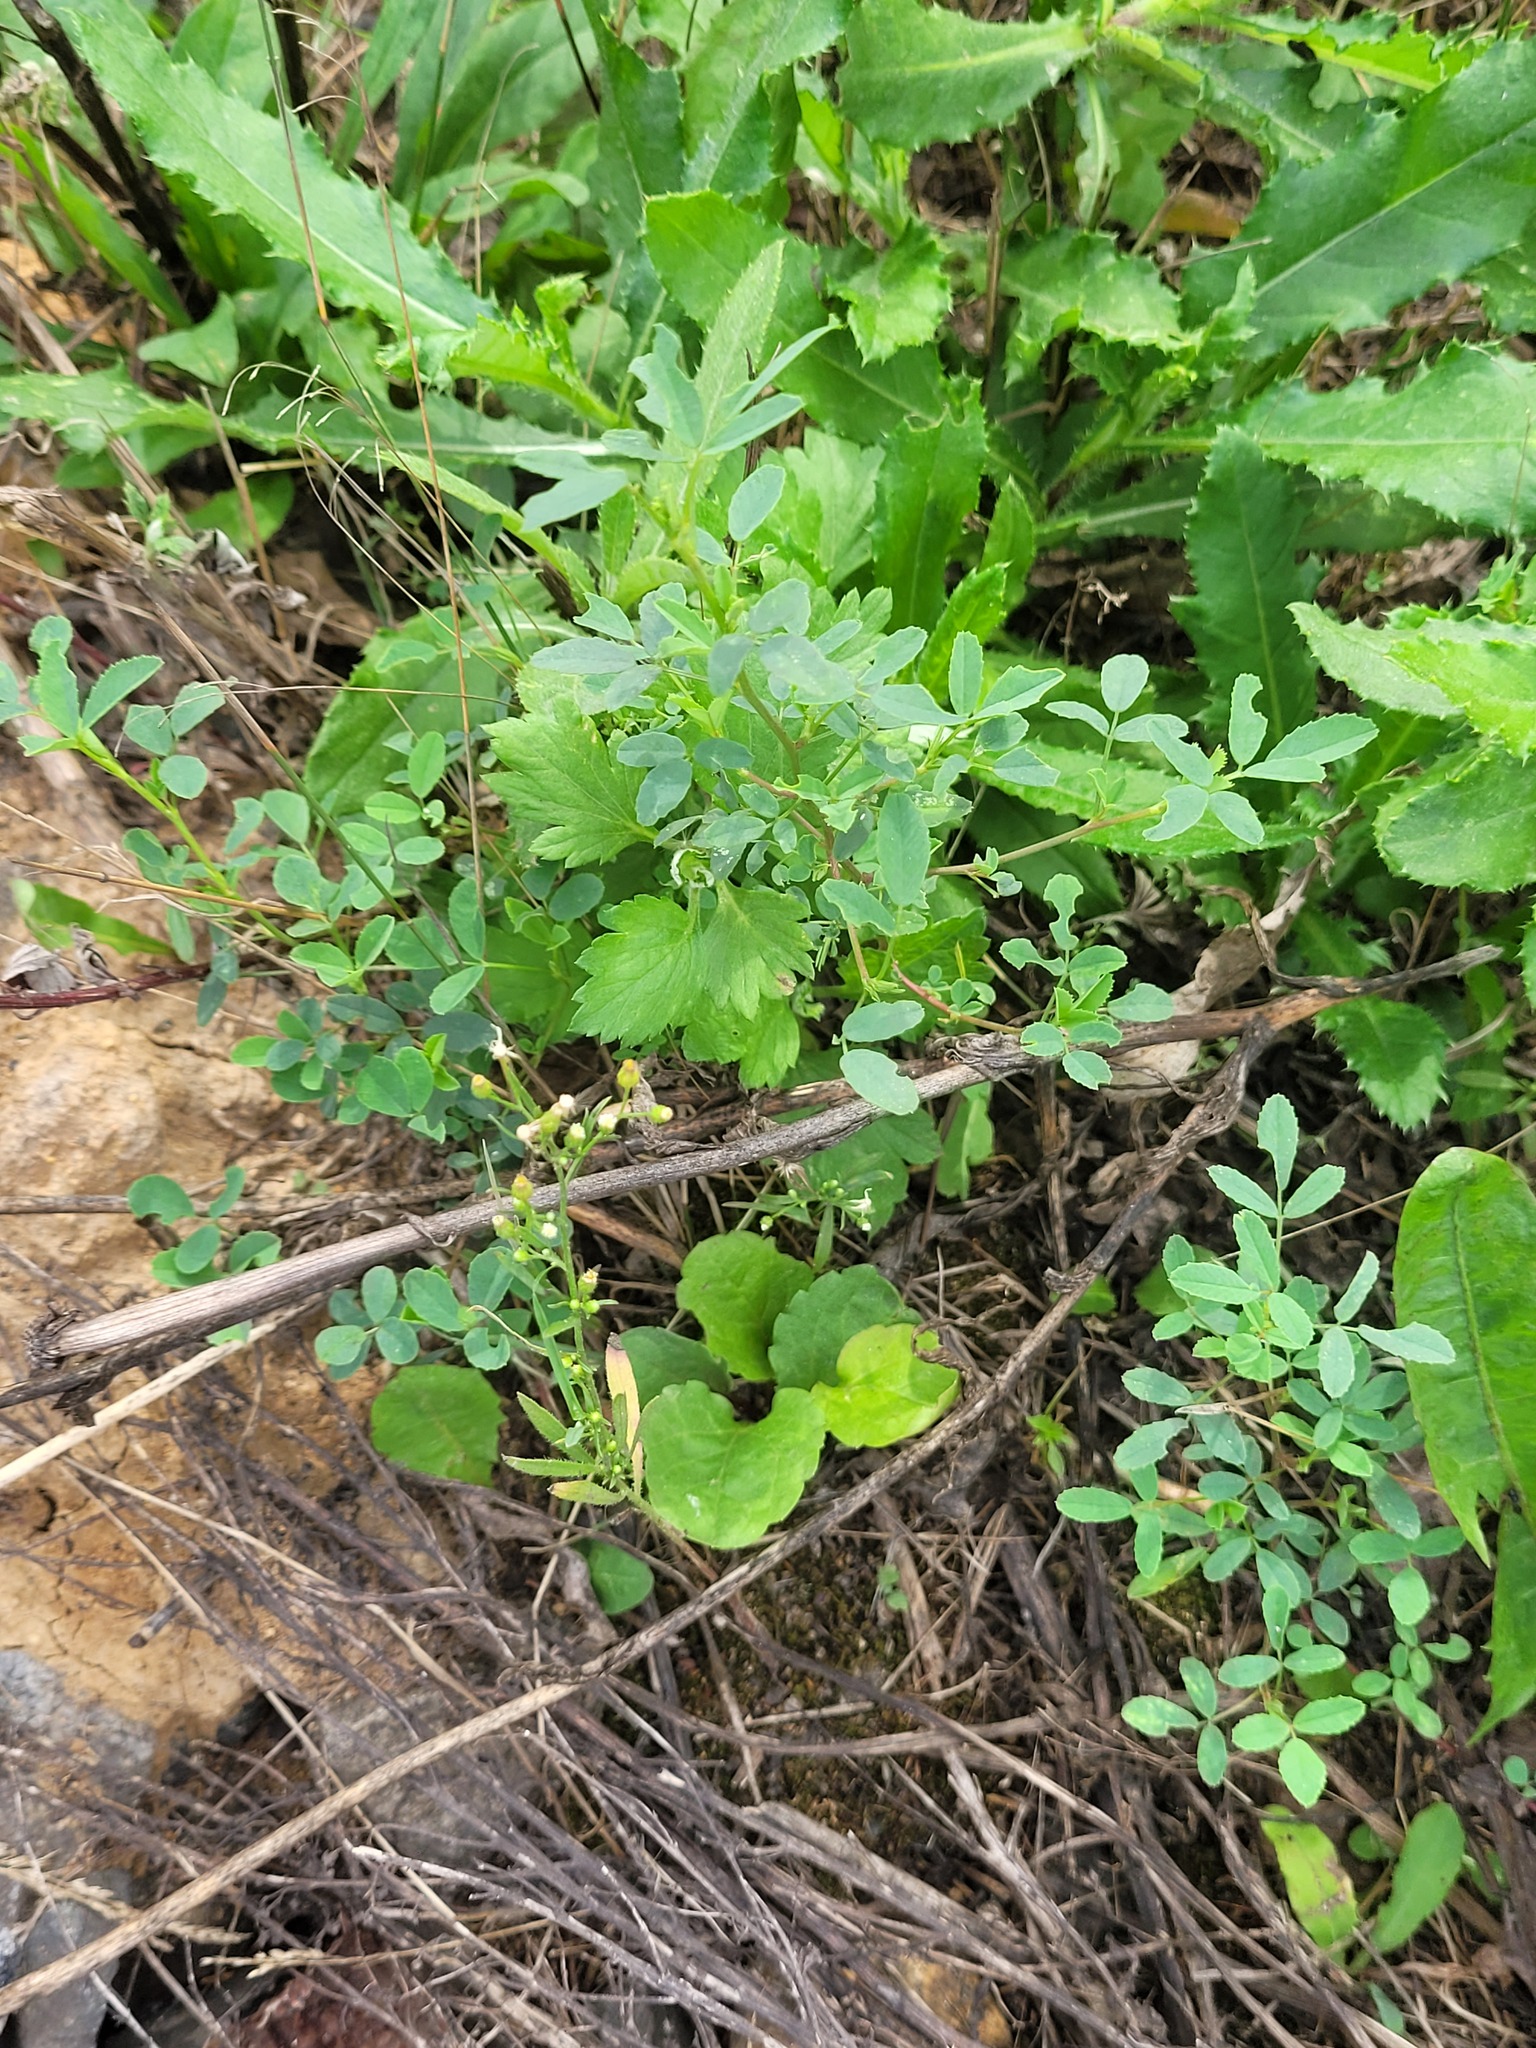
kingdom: Plantae
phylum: Tracheophyta
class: Magnoliopsida
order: Asterales
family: Asteraceae
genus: Erigeron
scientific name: Erigeron canadensis
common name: Canadian fleabane
